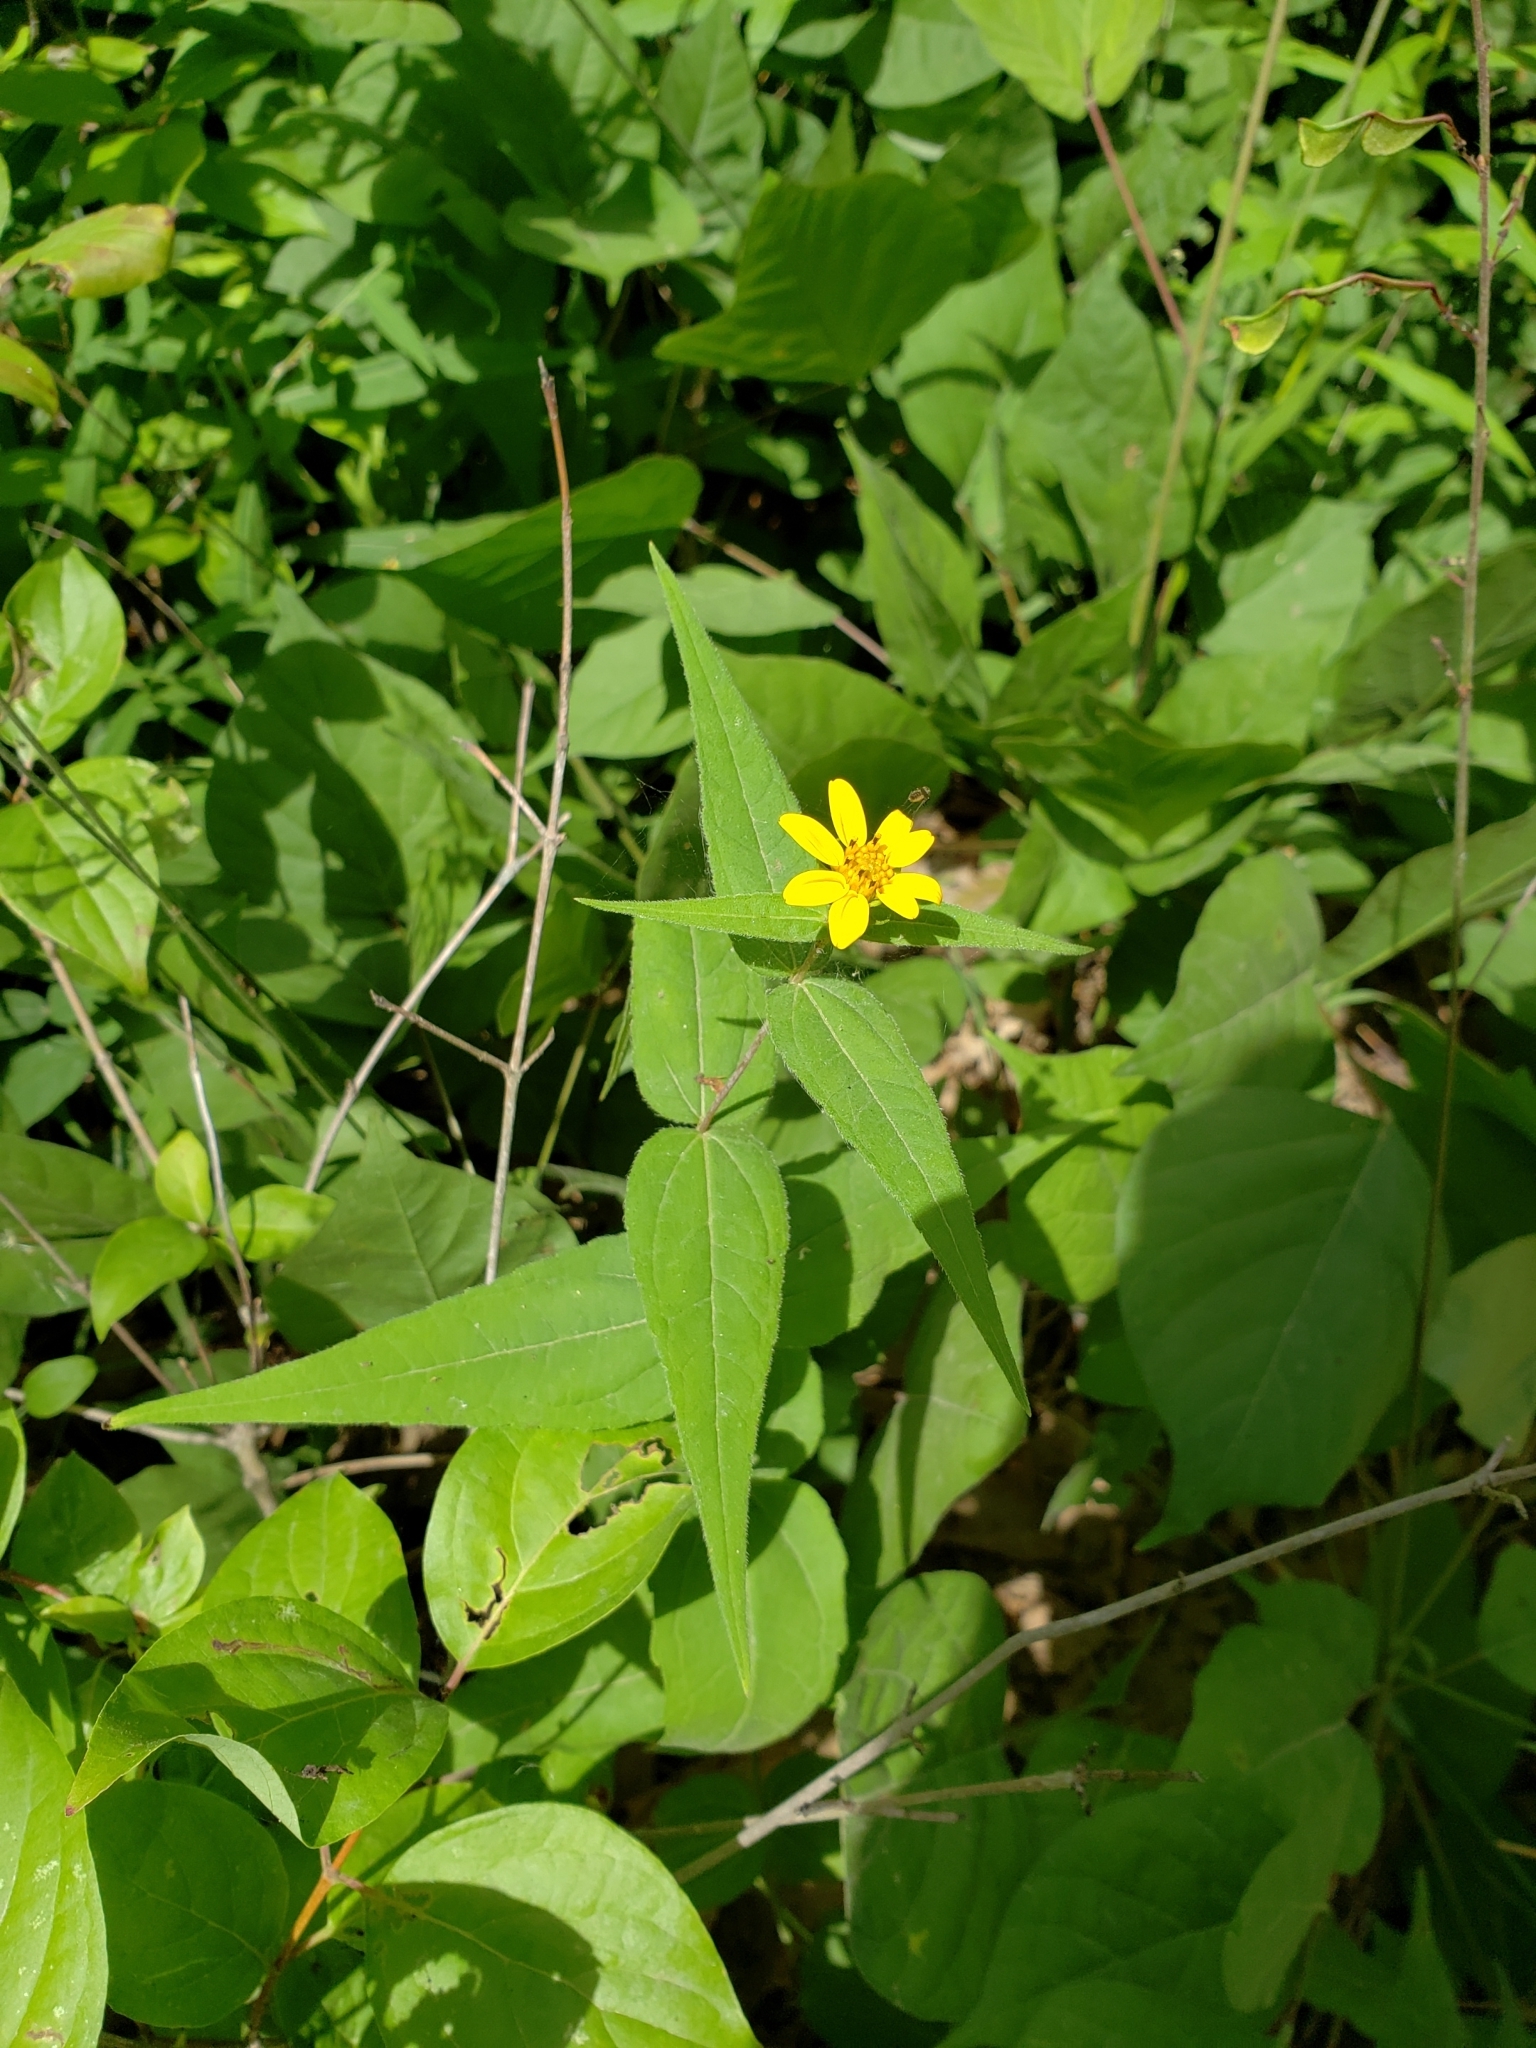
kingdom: Plantae
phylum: Tracheophyta
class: Magnoliopsida
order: Asterales
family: Asteraceae
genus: Helianthus
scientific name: Helianthus divaricatus
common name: Divergent sunflower
